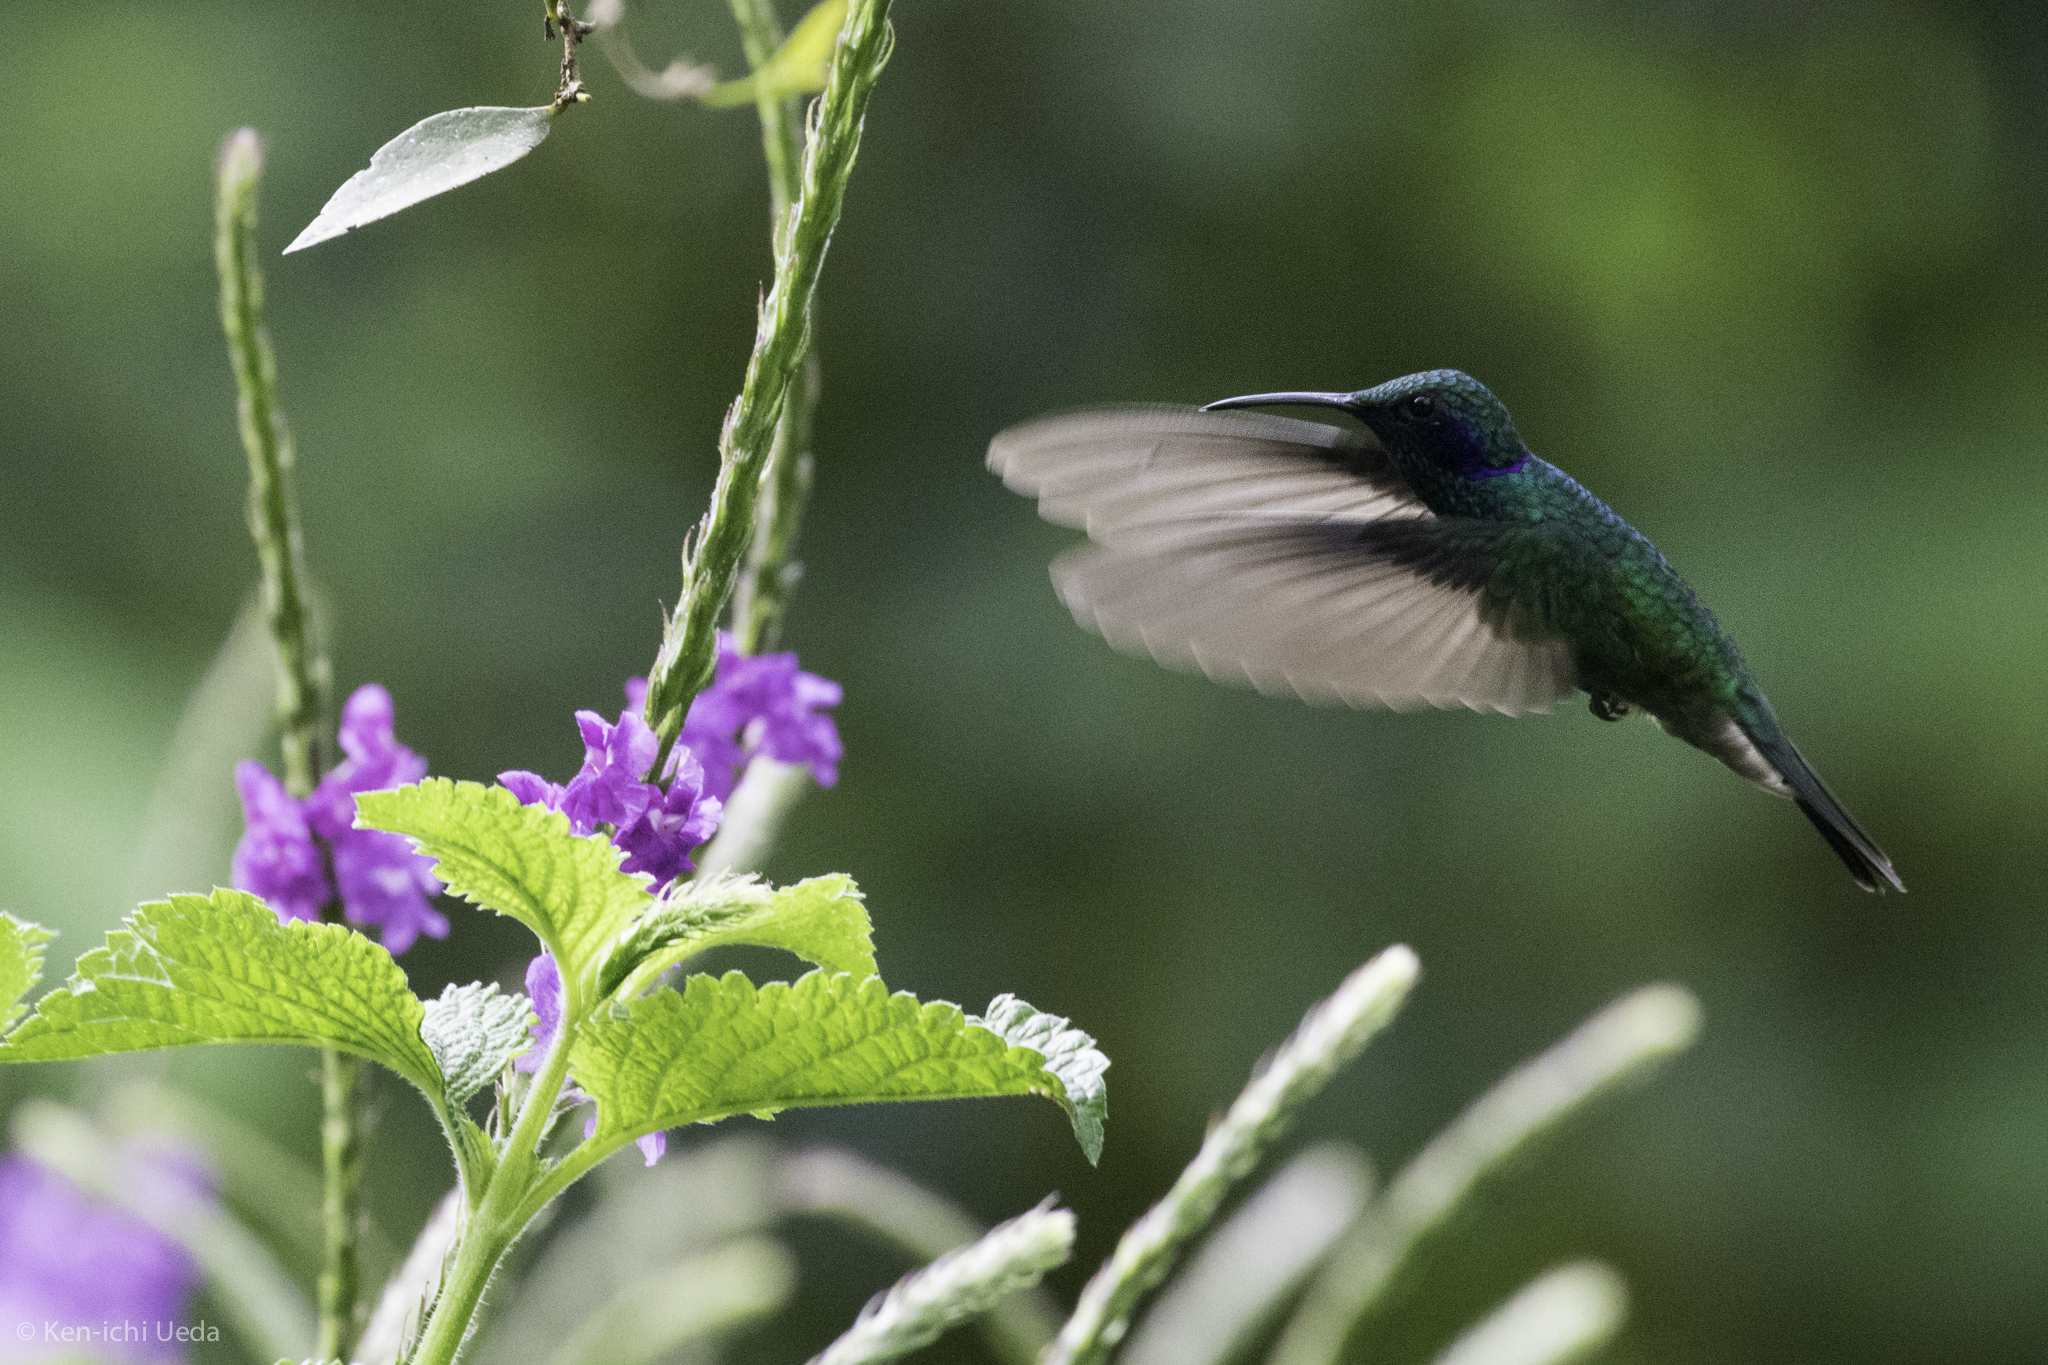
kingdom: Animalia
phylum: Chordata
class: Aves
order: Apodiformes
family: Trochilidae
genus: Colibri
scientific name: Colibri cyanotus
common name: Lesser violetear
